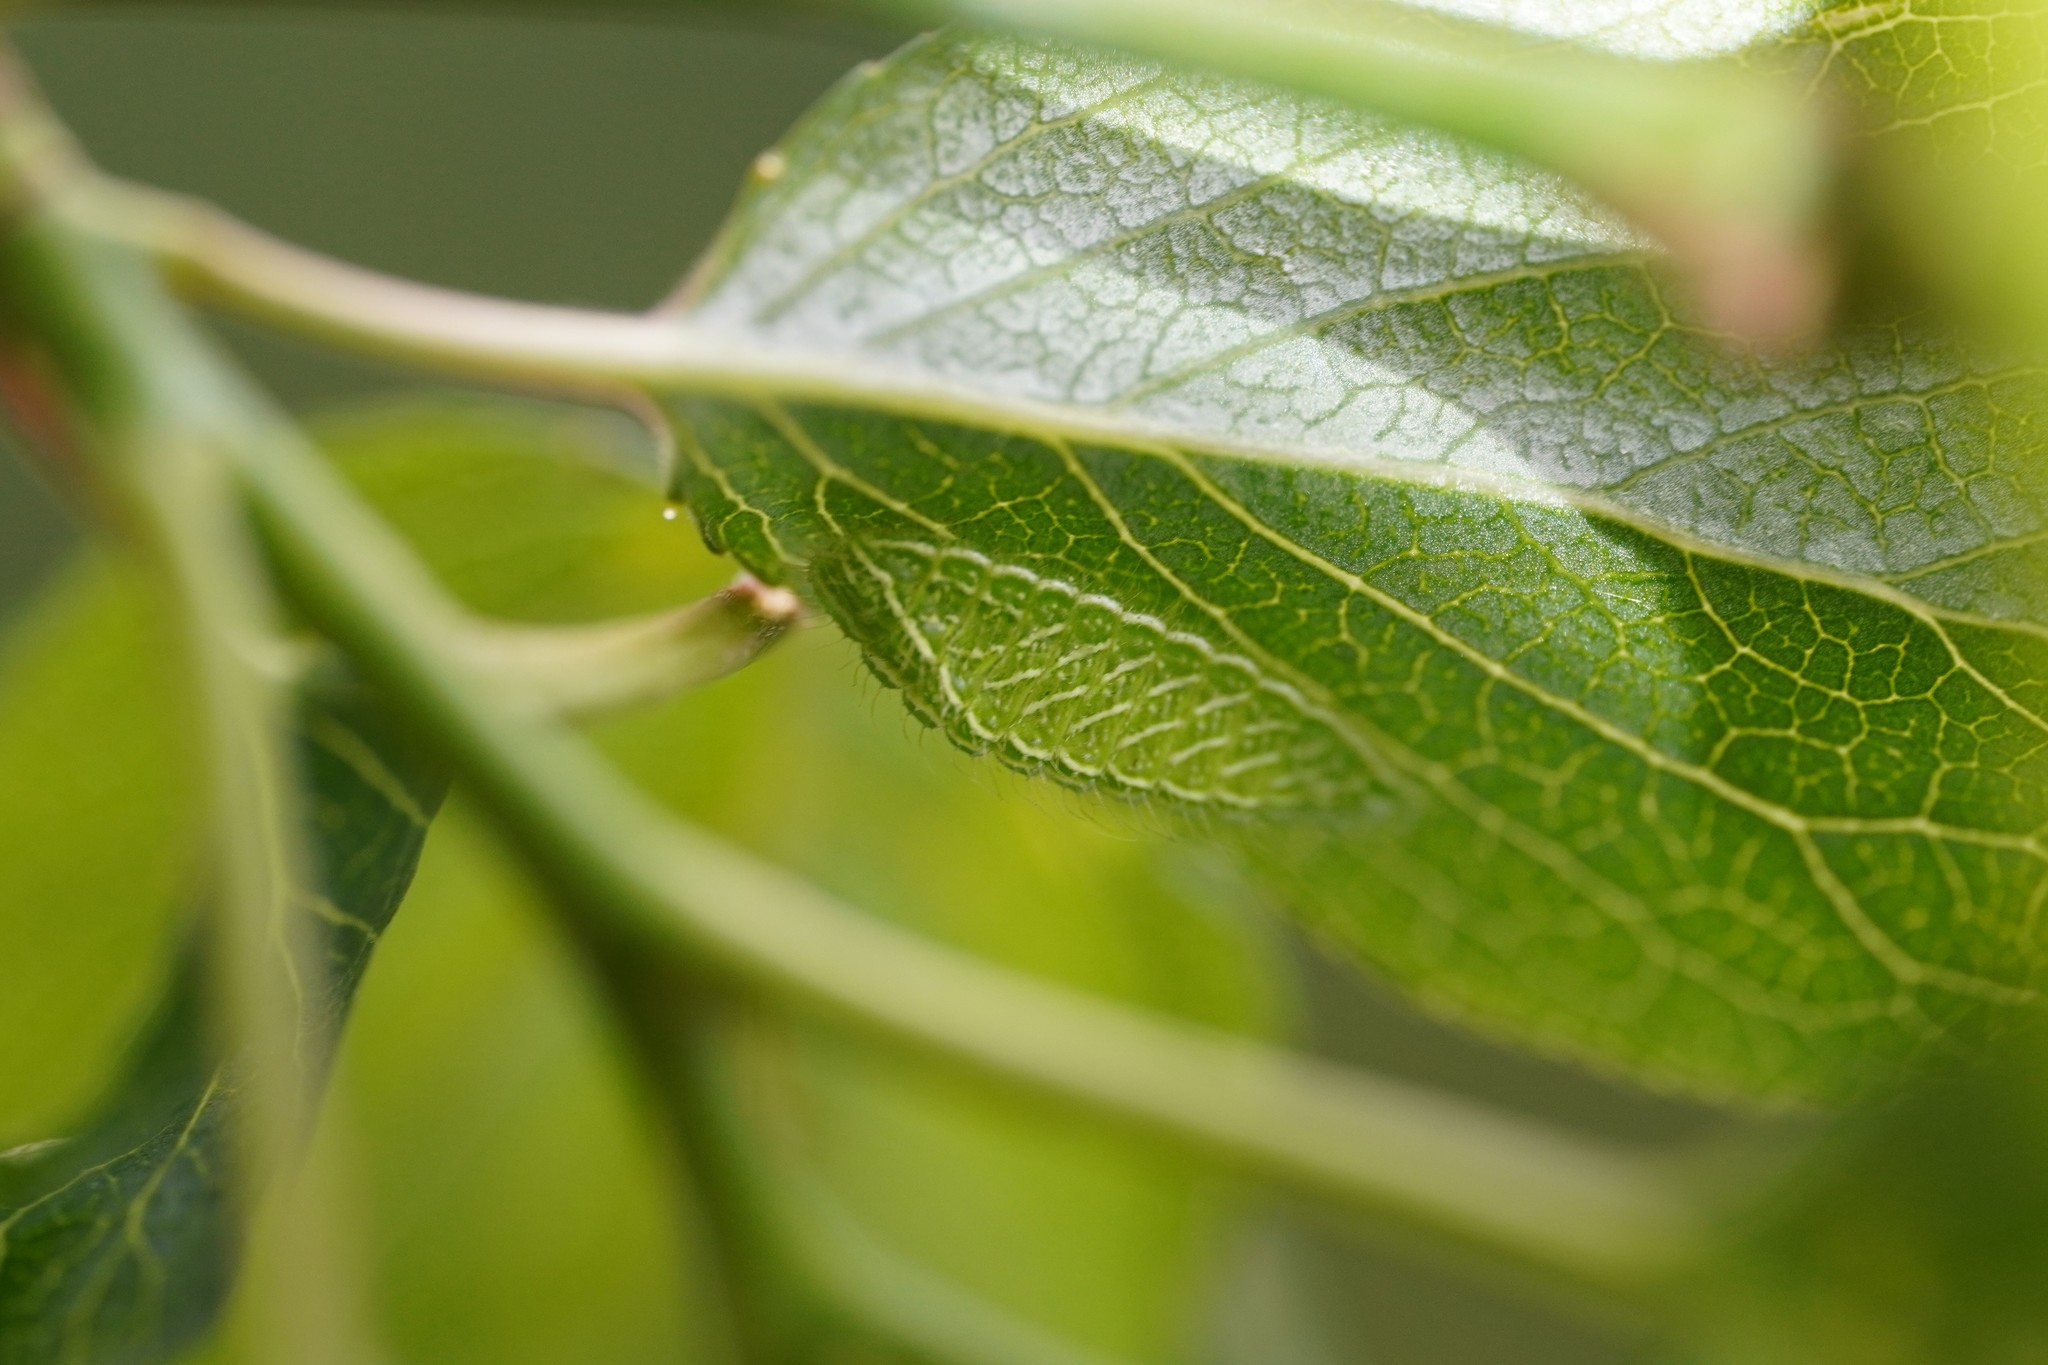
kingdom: Animalia
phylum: Arthropoda
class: Insecta
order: Lepidoptera
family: Lycaenidae
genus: Thecla
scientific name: Thecla betulae
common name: Brown hairstreak
